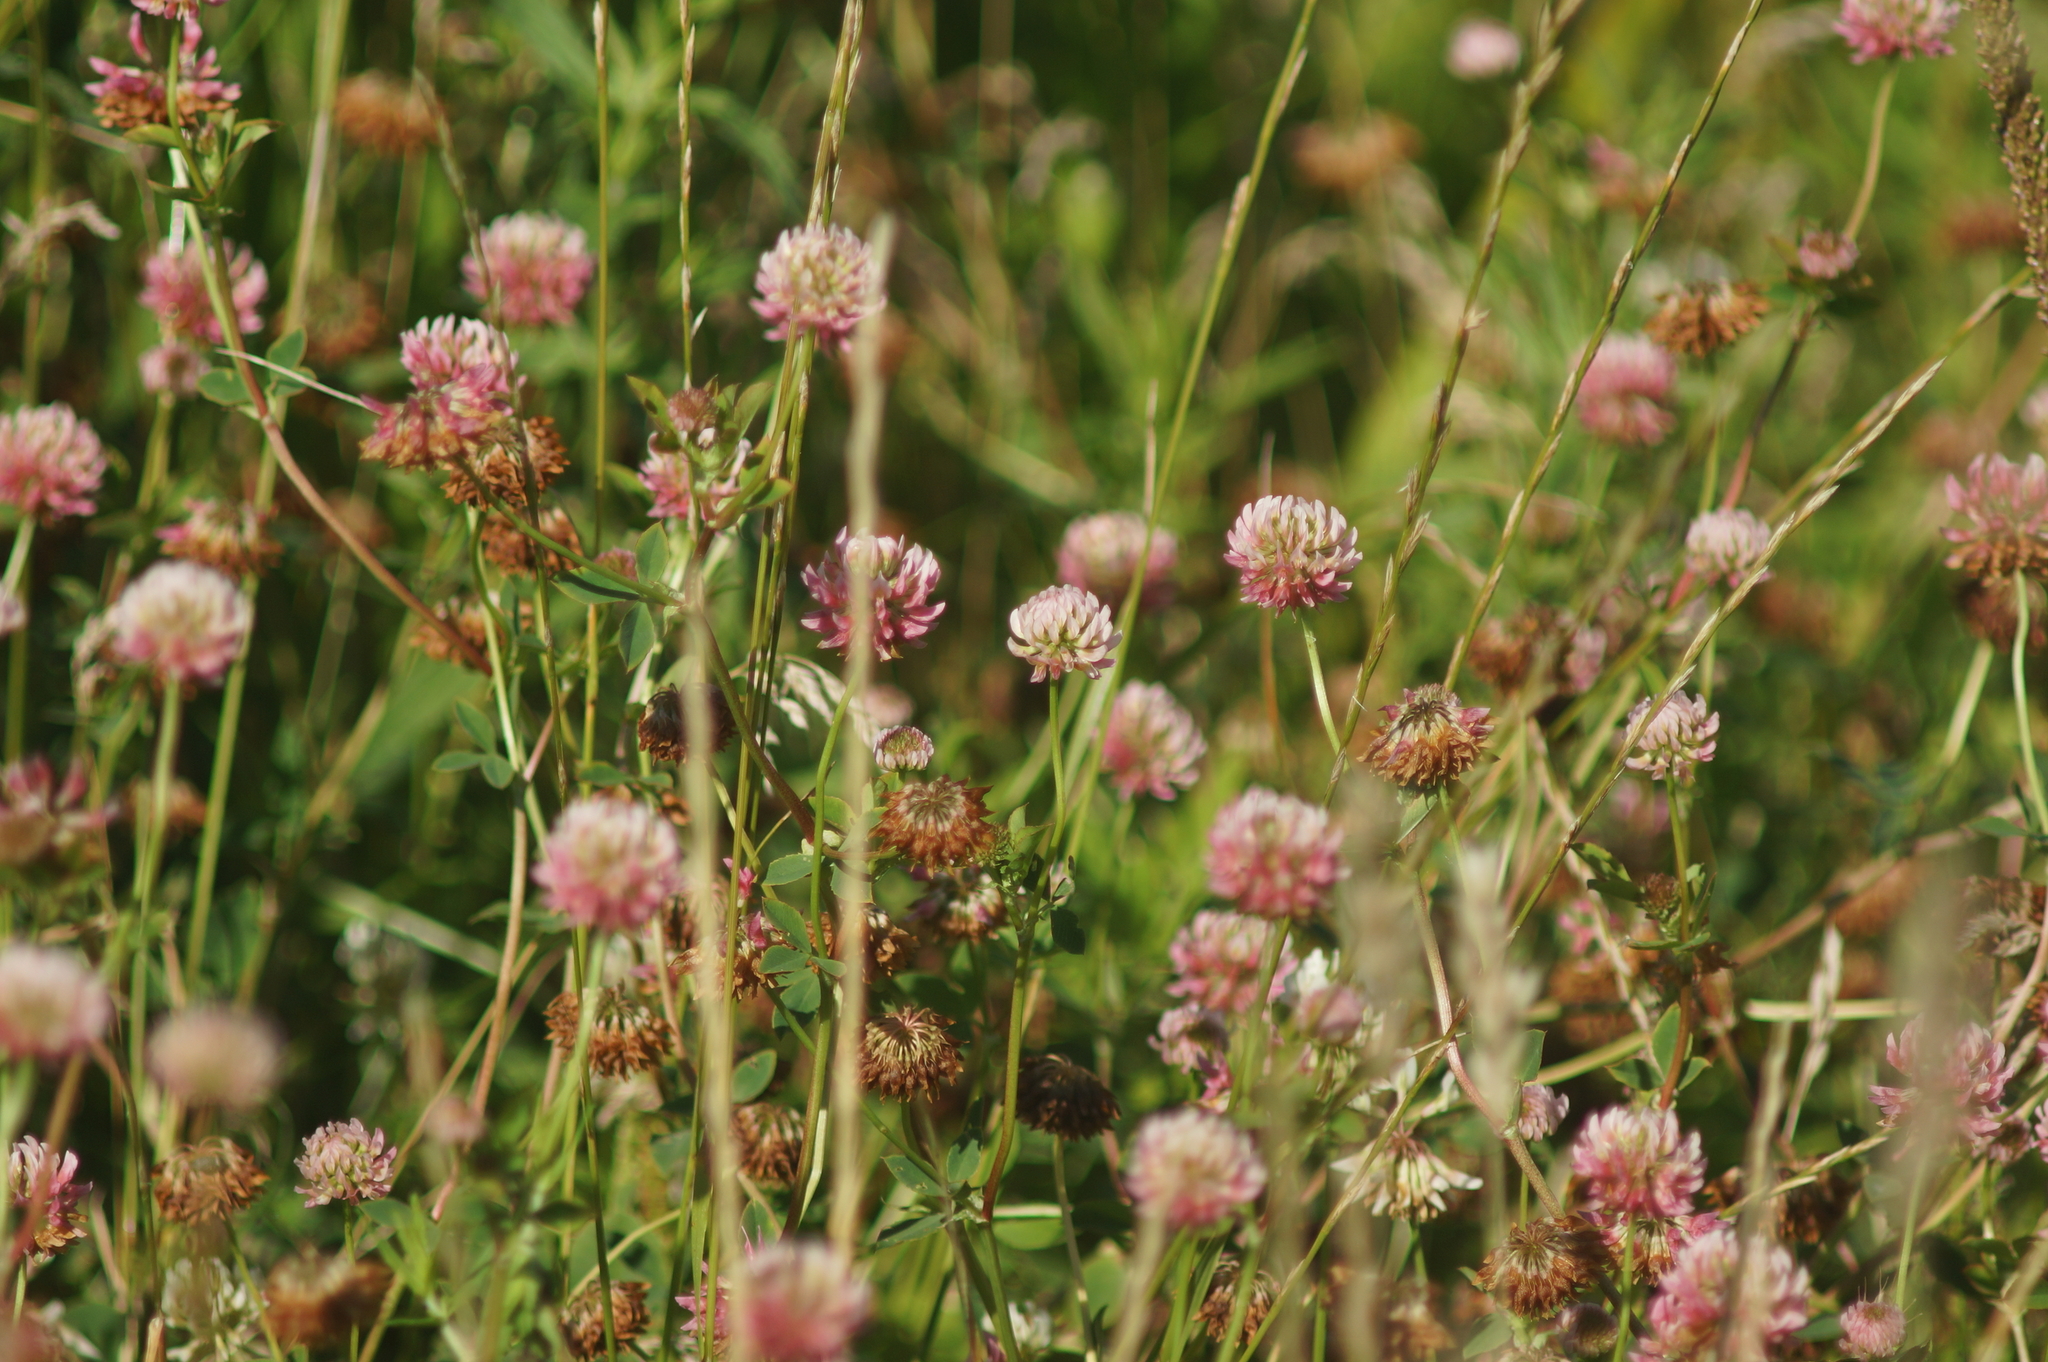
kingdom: Plantae
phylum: Tracheophyta
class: Magnoliopsida
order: Fabales
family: Fabaceae
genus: Trifolium
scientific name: Trifolium hybridum
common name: Alsike clover
